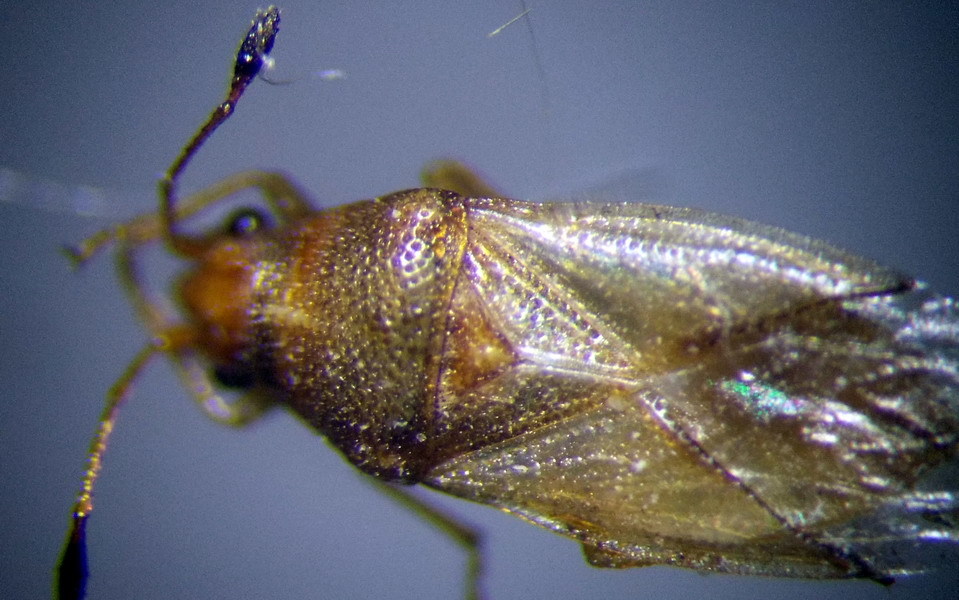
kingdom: Animalia
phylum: Arthropoda
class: Insecta
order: Hemiptera
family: Cymidae
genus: Cymus
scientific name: Cymus claviculus
